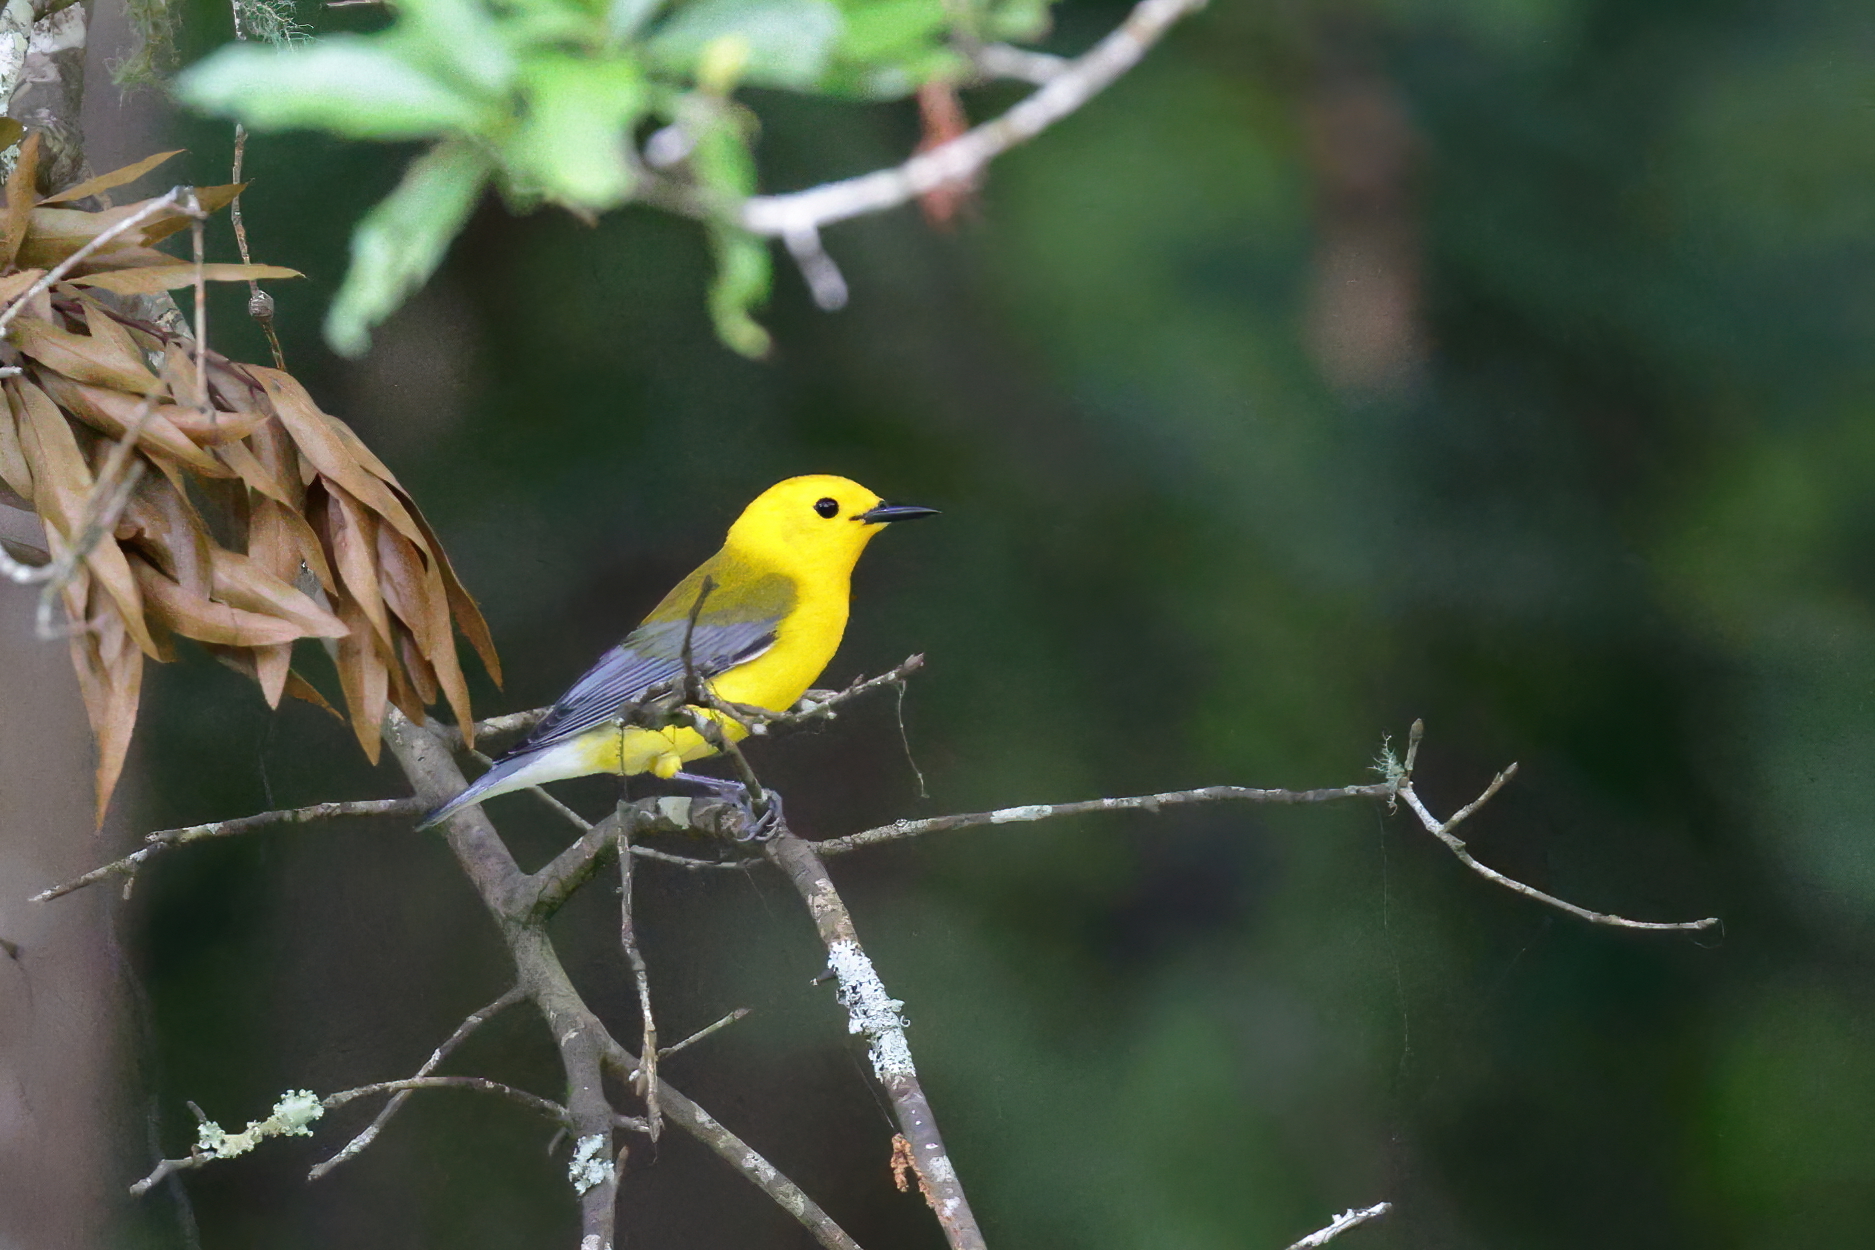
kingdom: Animalia
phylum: Chordata
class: Aves
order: Passeriformes
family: Parulidae
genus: Protonotaria
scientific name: Protonotaria citrea
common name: Prothonotary warbler
